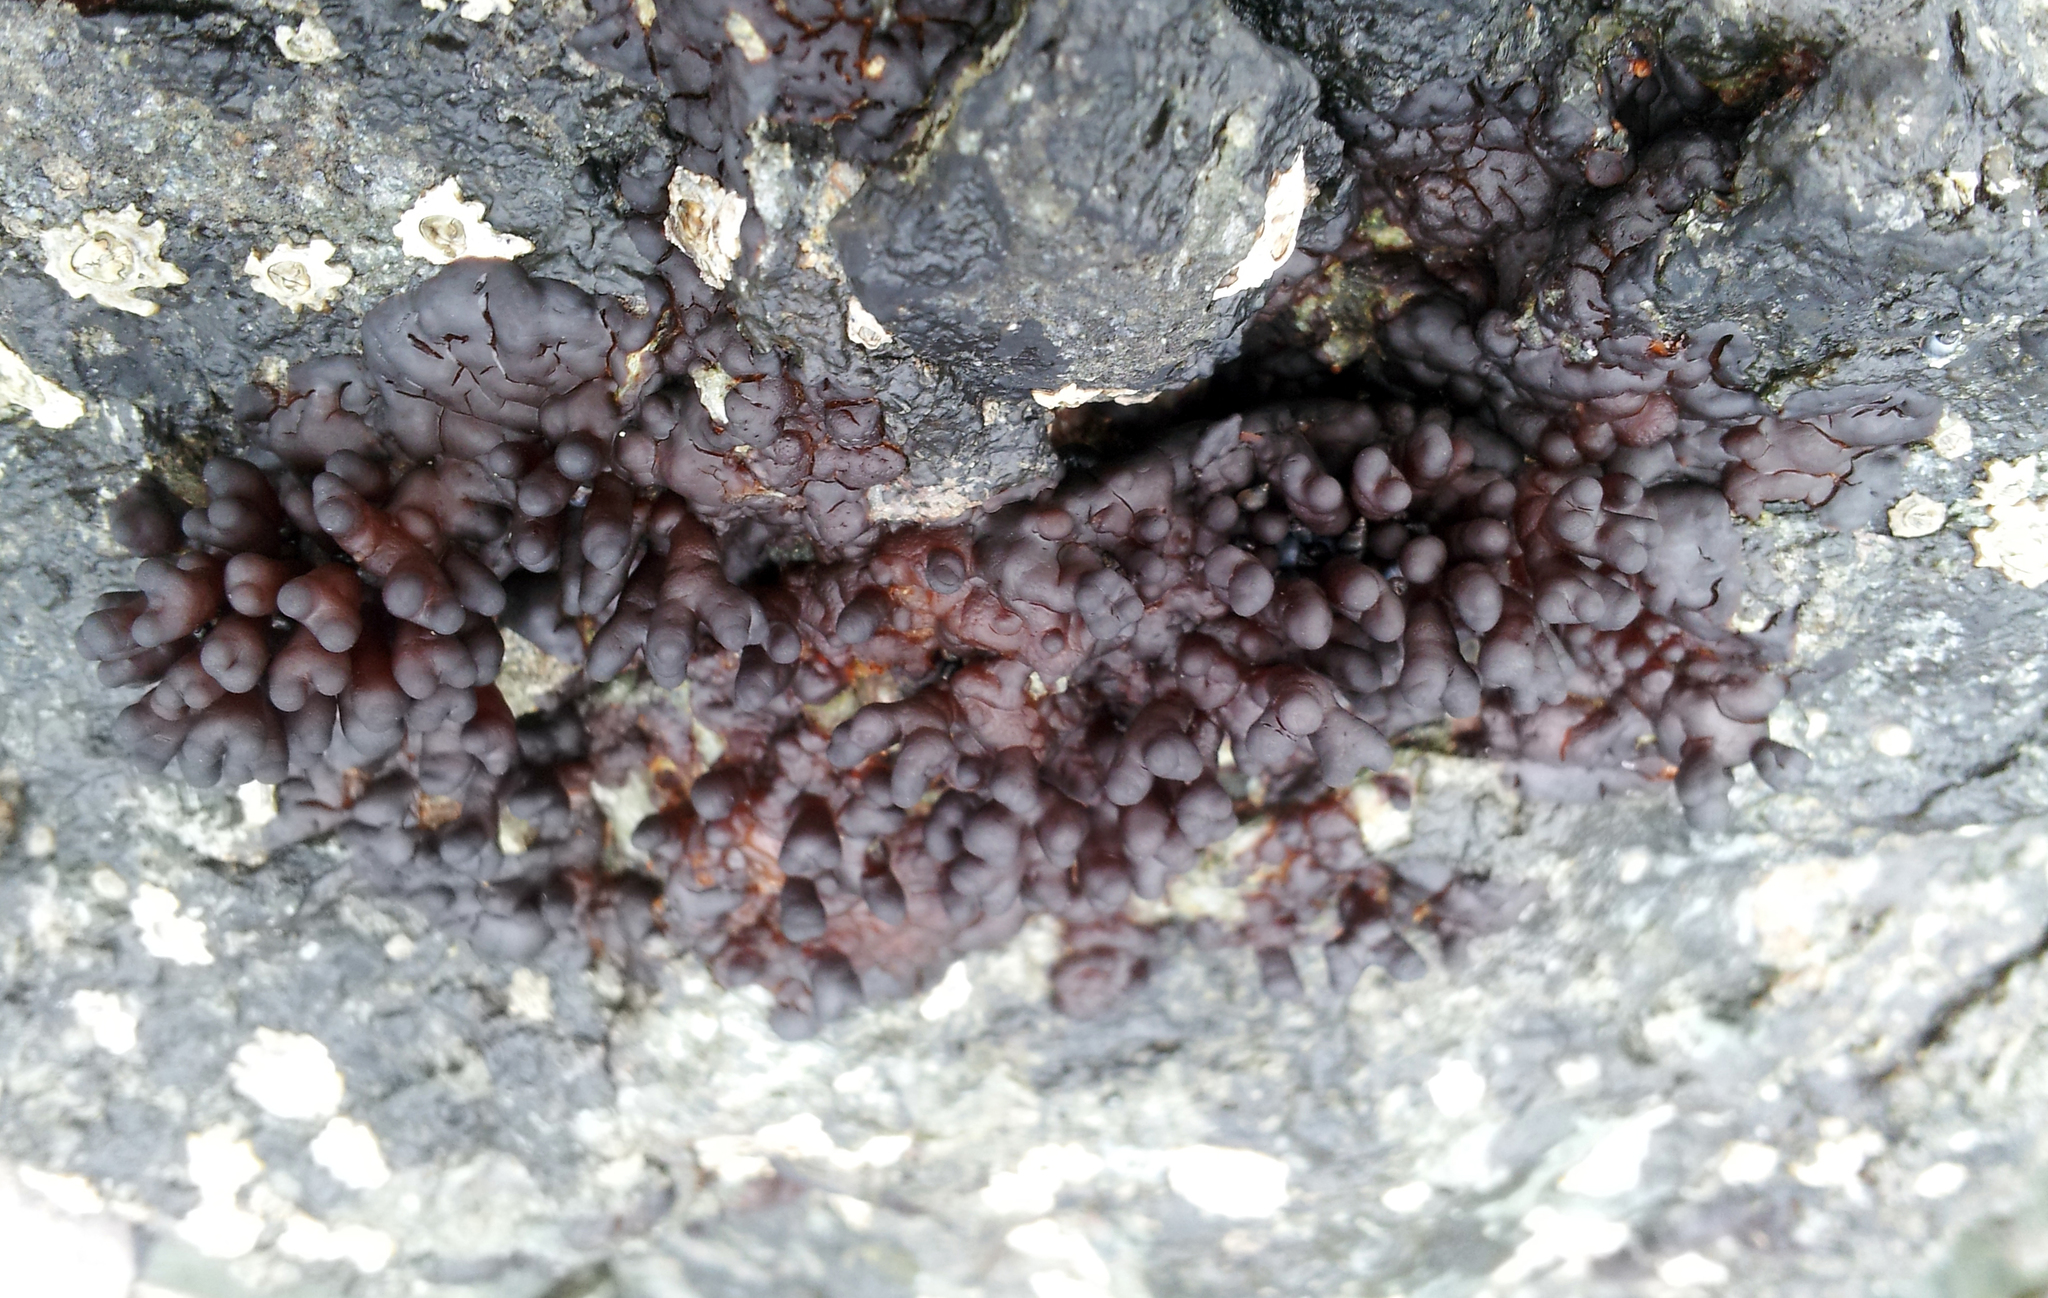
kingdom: Plantae
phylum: Rhodophyta
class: Florideophyceae
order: Hildenbrandiales
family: Hildenbrandiaceae
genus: Apophlaea
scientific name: Apophlaea sinclairii
